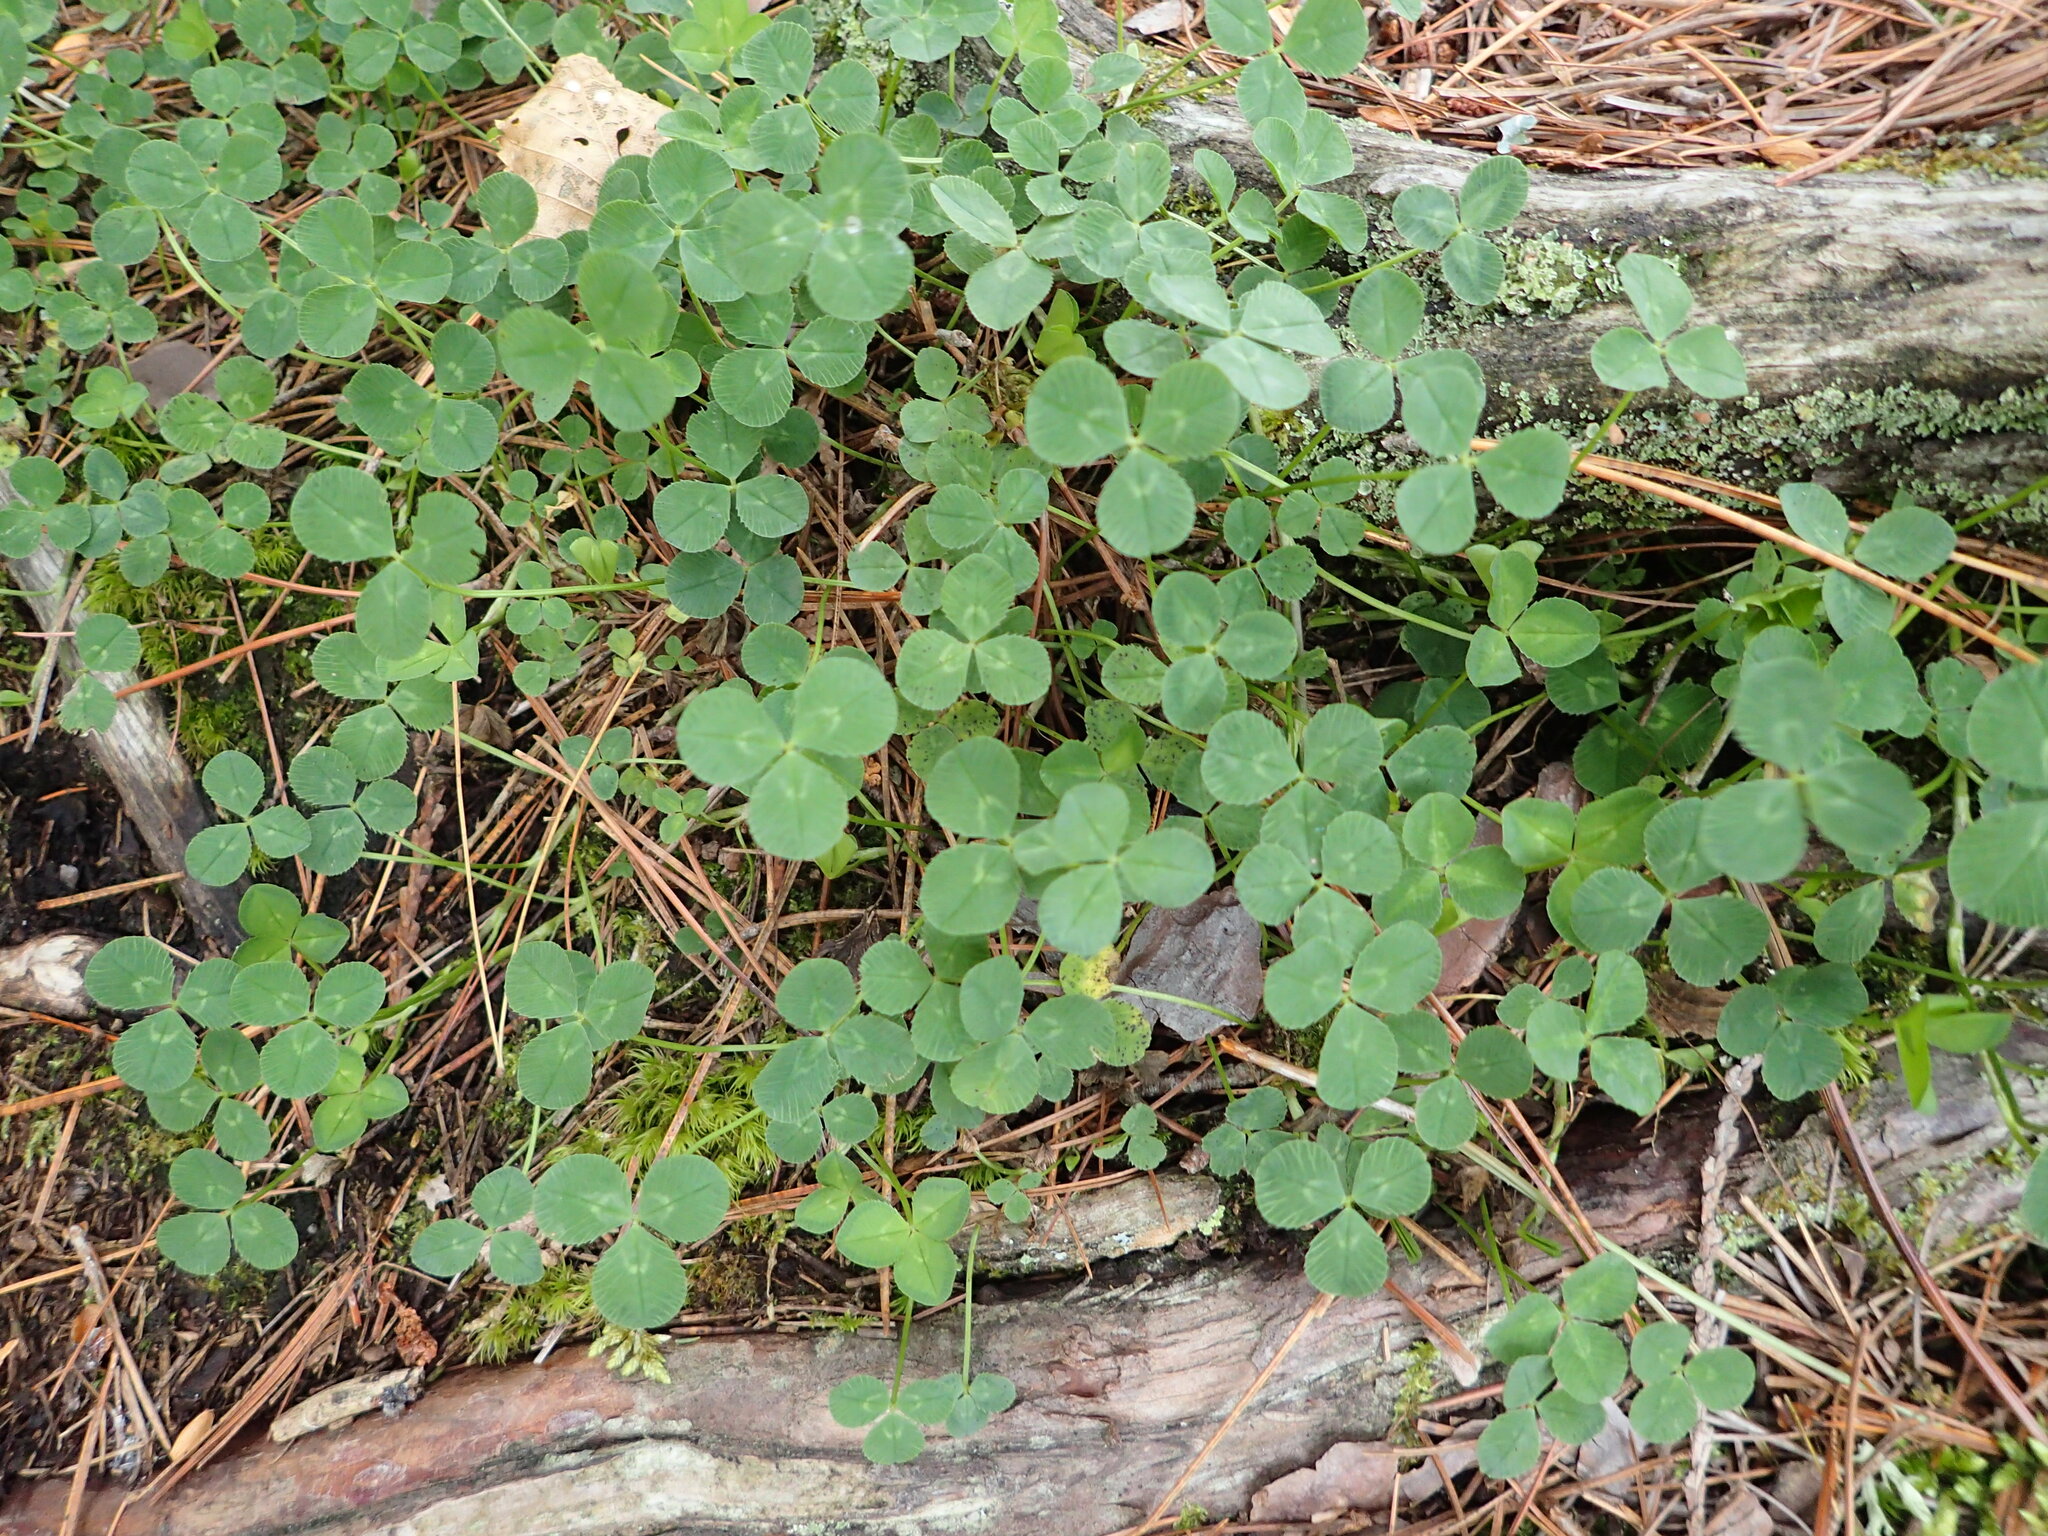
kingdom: Plantae
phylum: Tracheophyta
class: Magnoliopsida
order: Fabales
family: Fabaceae
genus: Trifolium
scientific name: Trifolium repens
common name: White clover
